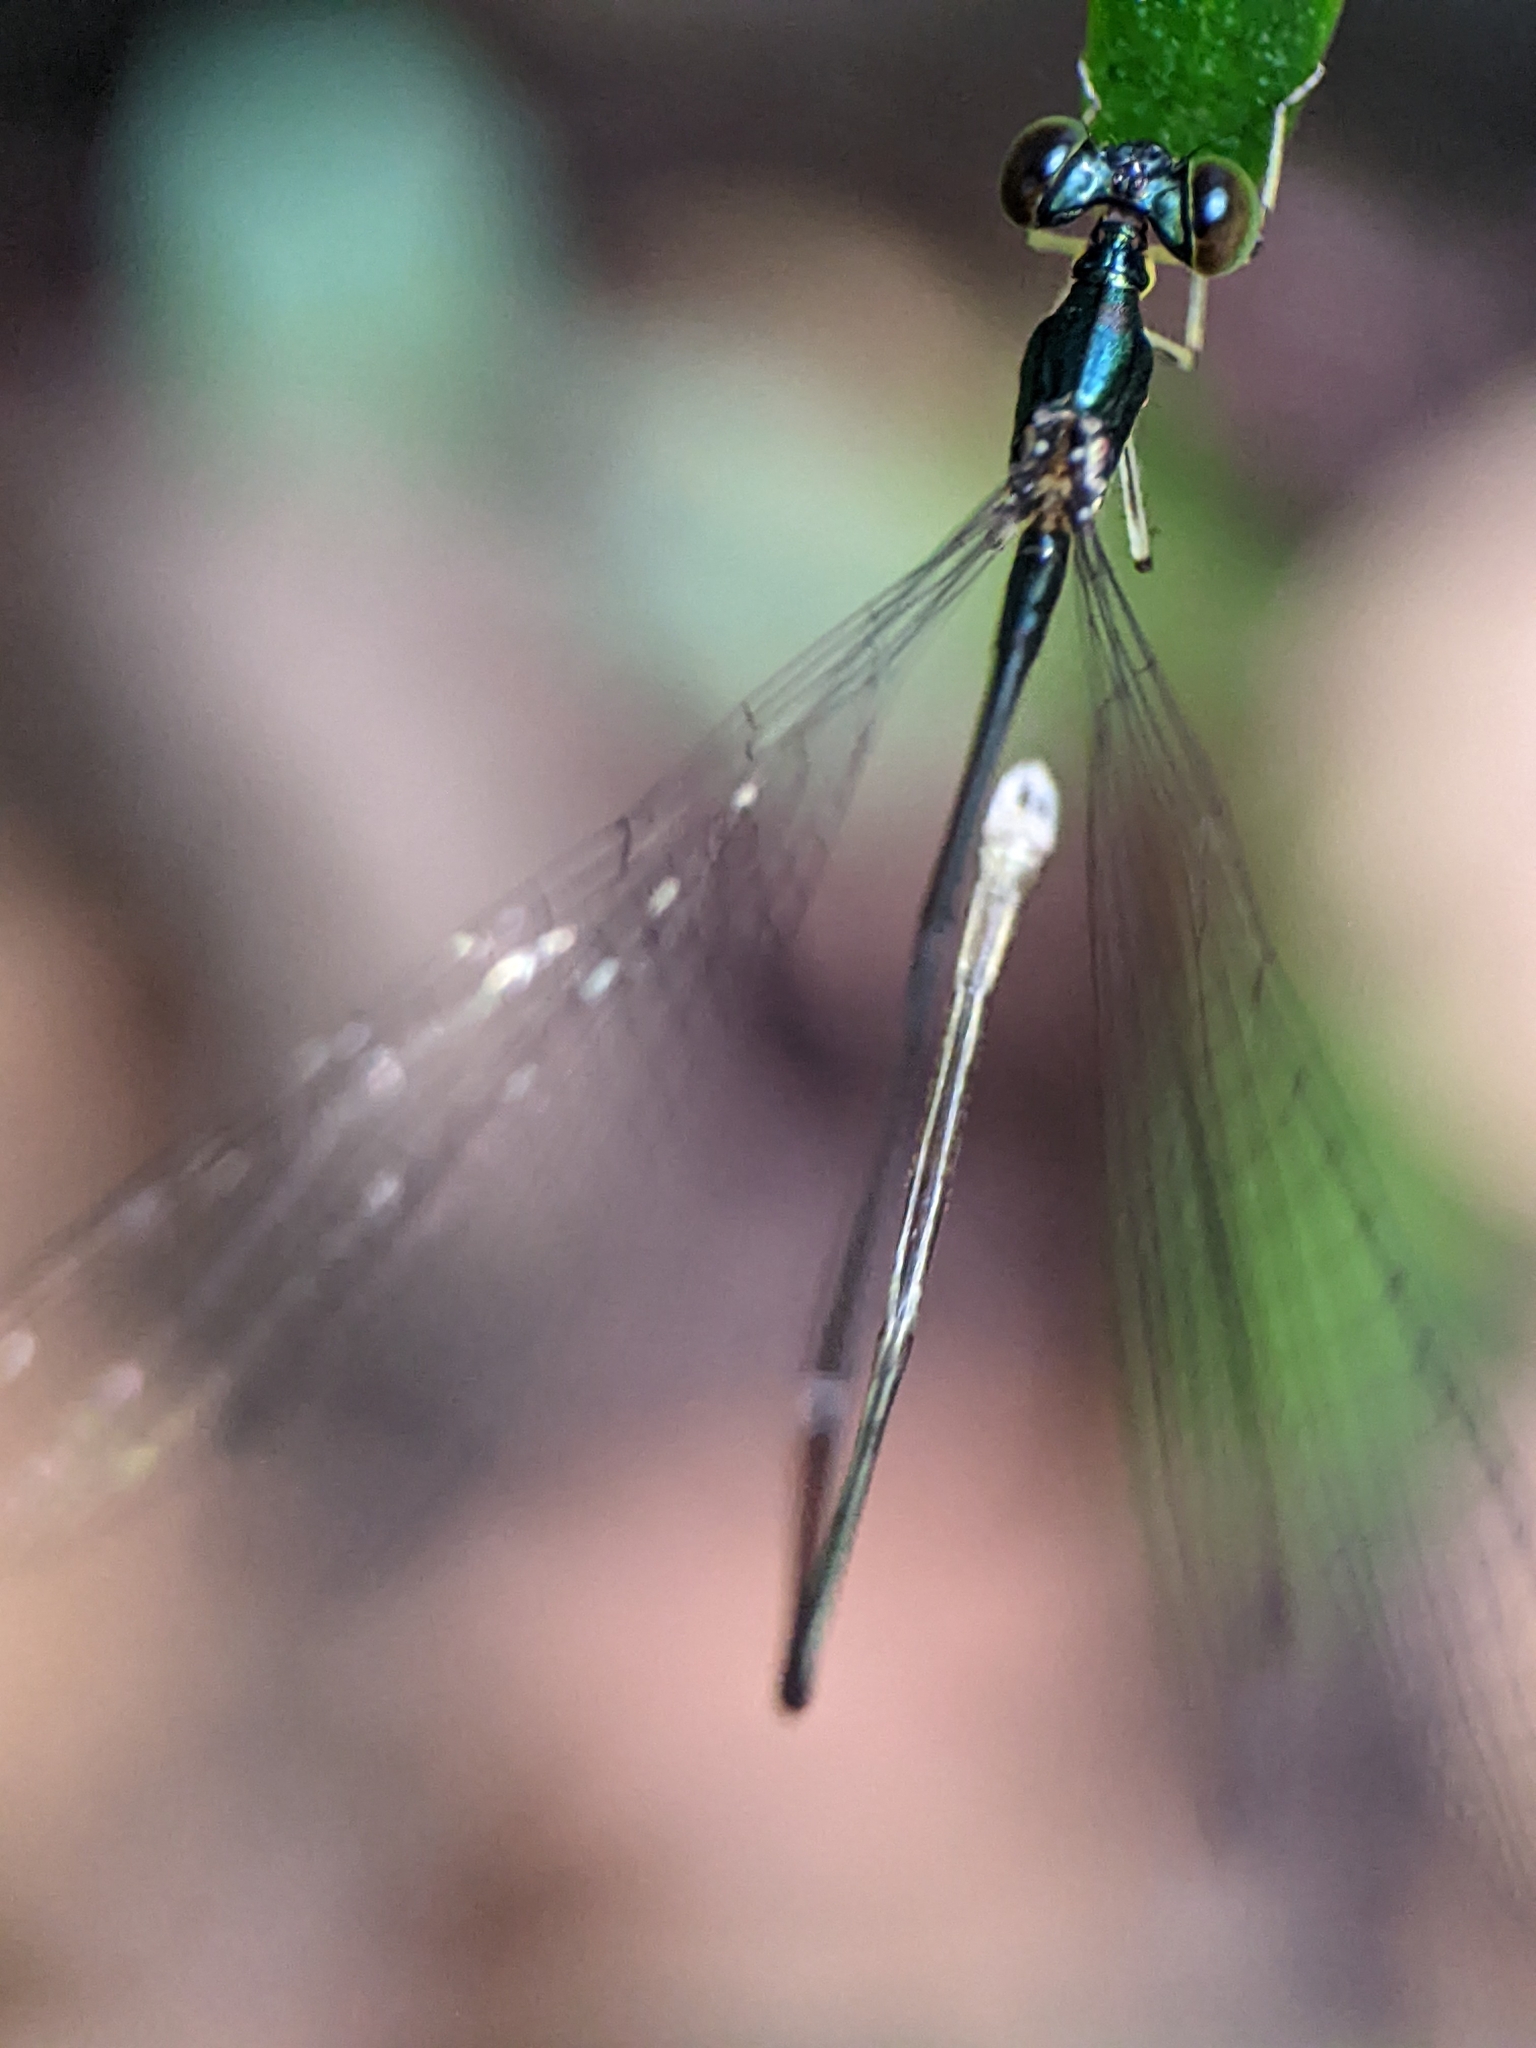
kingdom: Animalia
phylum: Arthropoda
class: Insecta
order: Odonata
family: Coenagrionidae
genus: Amphicnemis
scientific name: Amphicnemis gracilis
